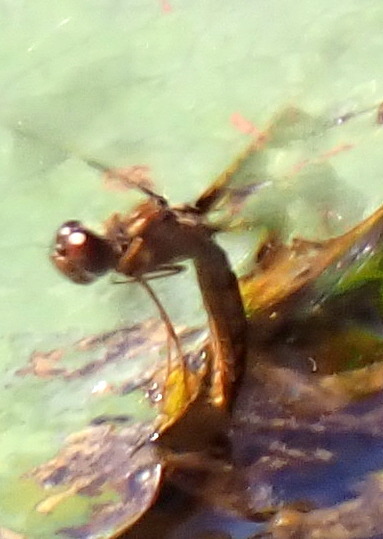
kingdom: Animalia
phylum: Arthropoda
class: Insecta
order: Odonata
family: Libellulidae
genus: Perithemis
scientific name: Perithemis tenera
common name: Eastern amberwing
